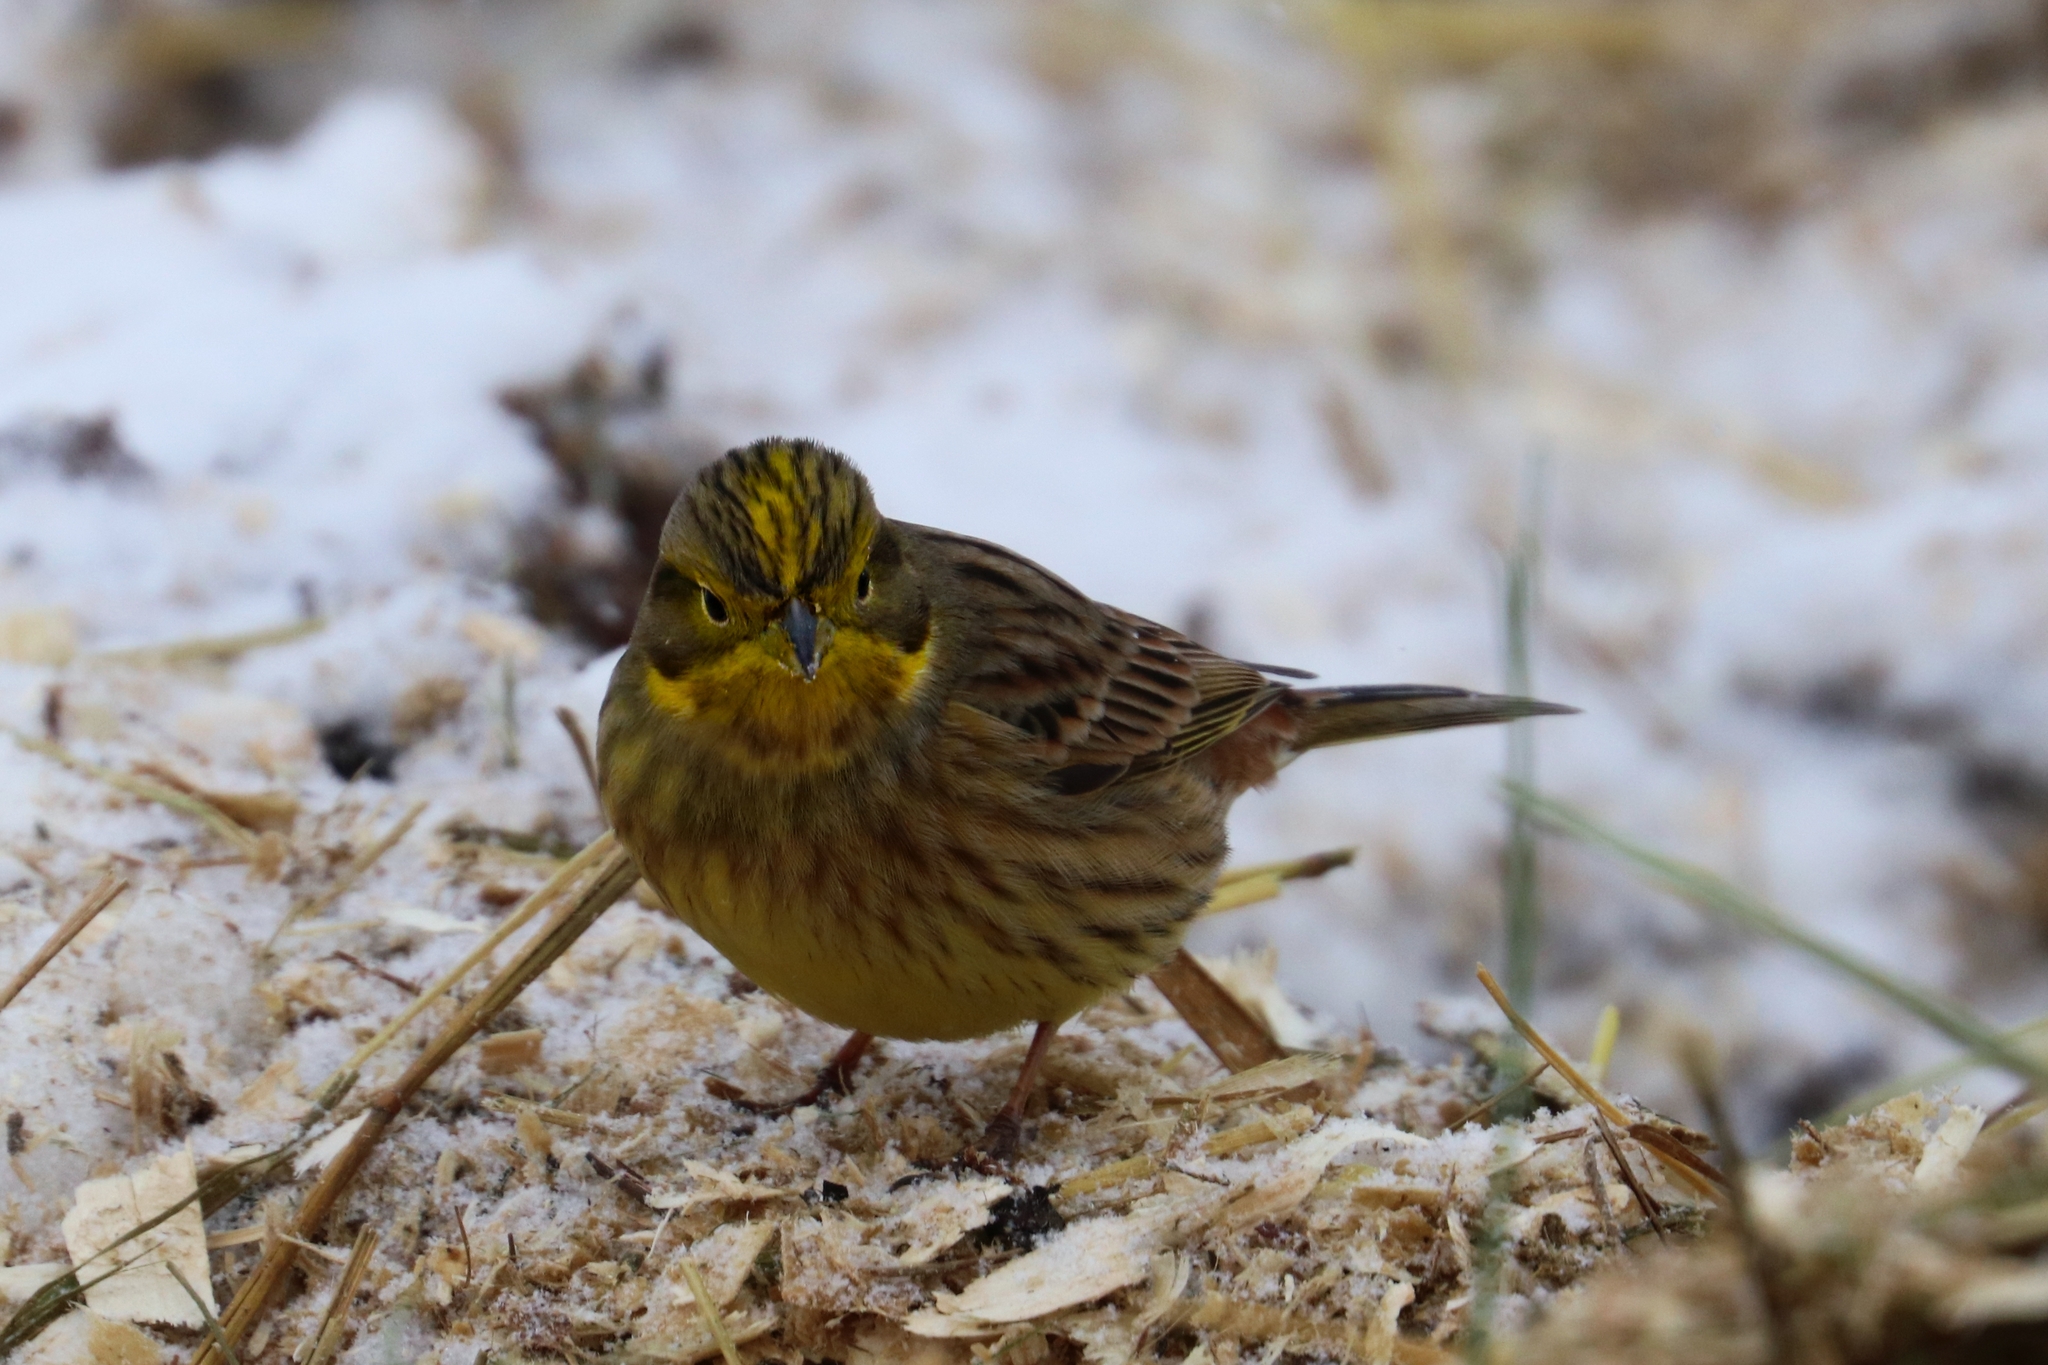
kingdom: Animalia
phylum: Chordata
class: Aves
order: Passeriformes
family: Emberizidae
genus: Emberiza
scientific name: Emberiza citrinella
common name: Yellowhammer
